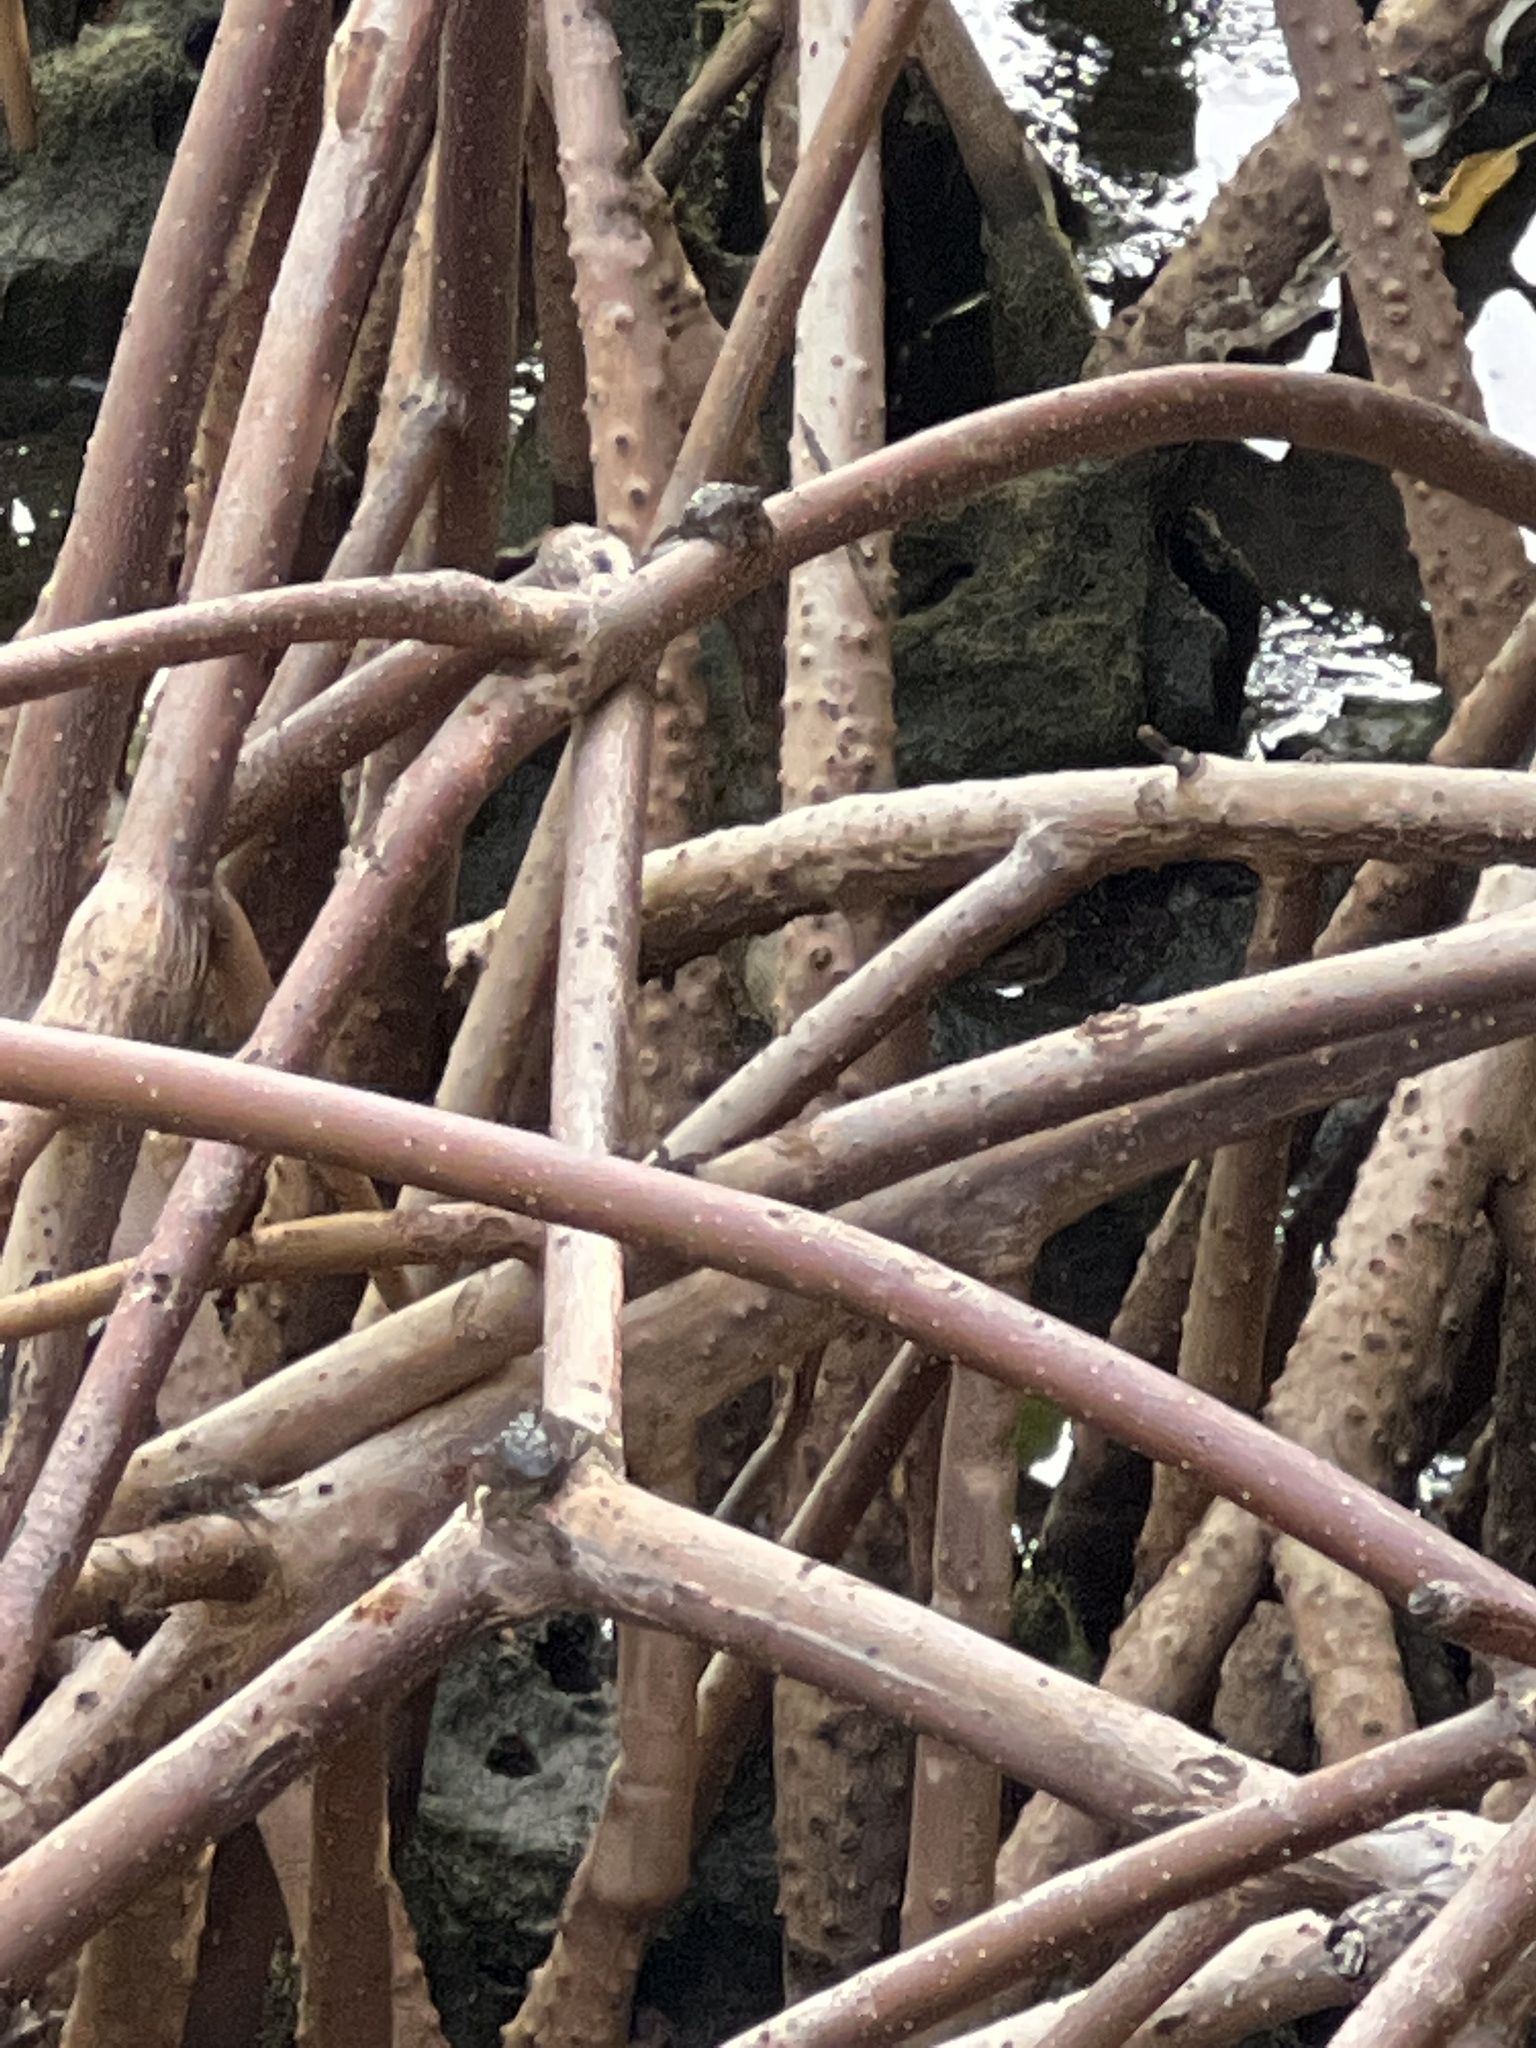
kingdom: Animalia
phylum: Arthropoda
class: Malacostraca
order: Decapoda
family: Sesarmidae
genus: Aratus
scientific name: Aratus pisonii
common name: Mangrove crab
